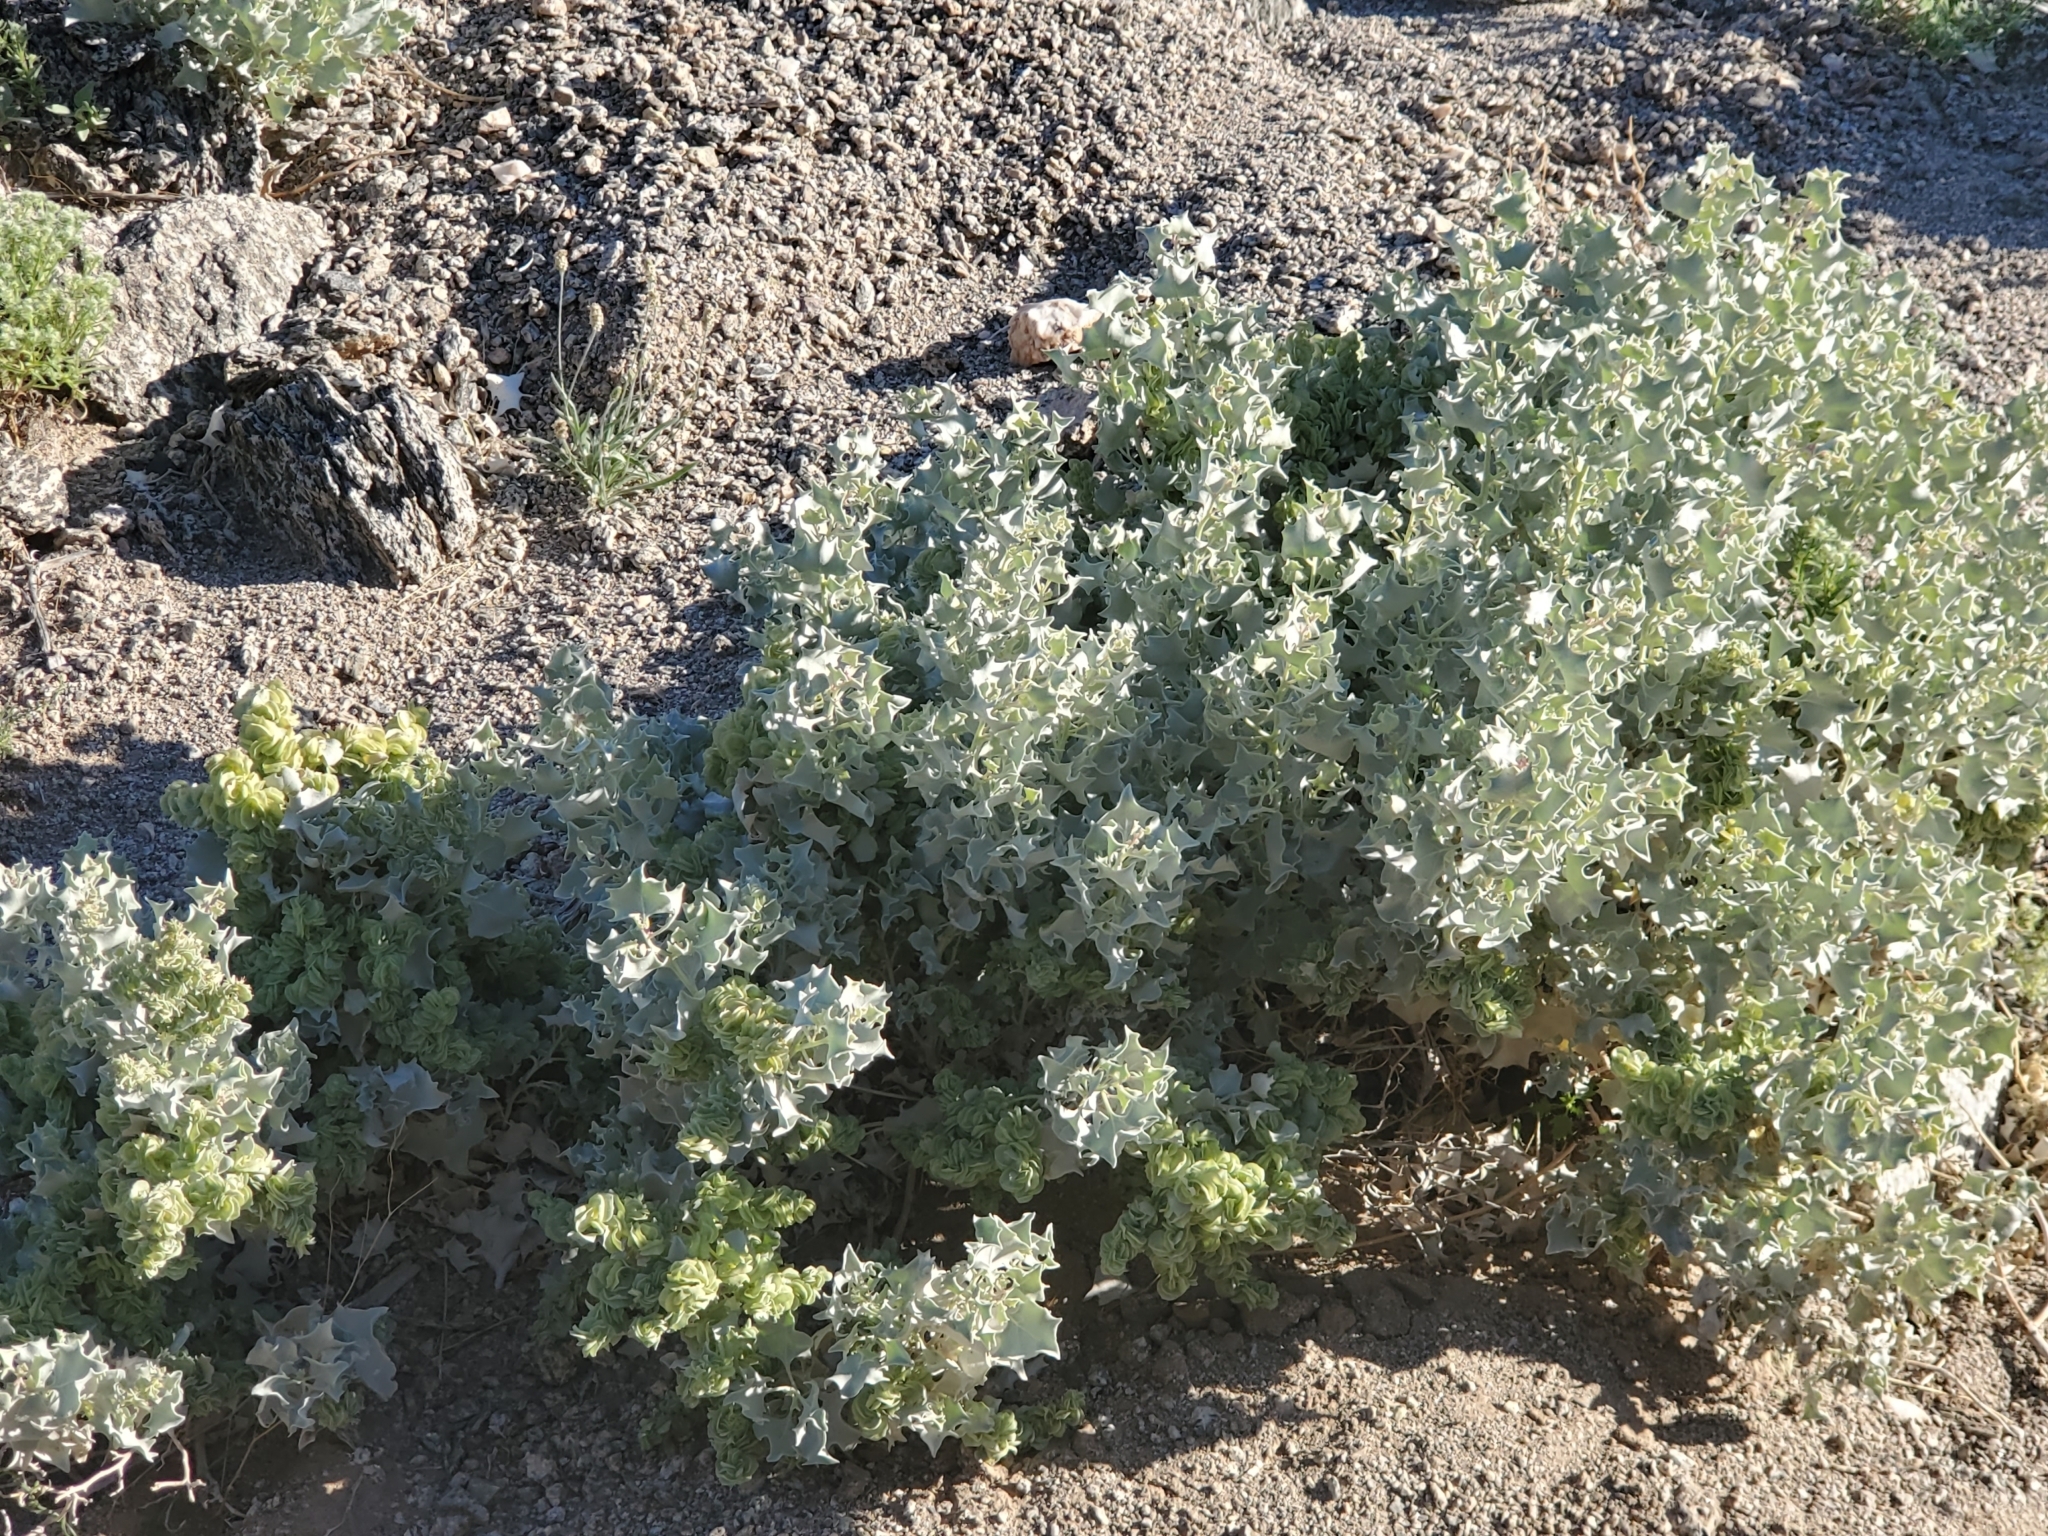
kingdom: Plantae
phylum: Tracheophyta
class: Magnoliopsida
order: Caryophyllales
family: Amaranthaceae
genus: Atriplex
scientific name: Atriplex hymenelytra
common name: Desert-holly
